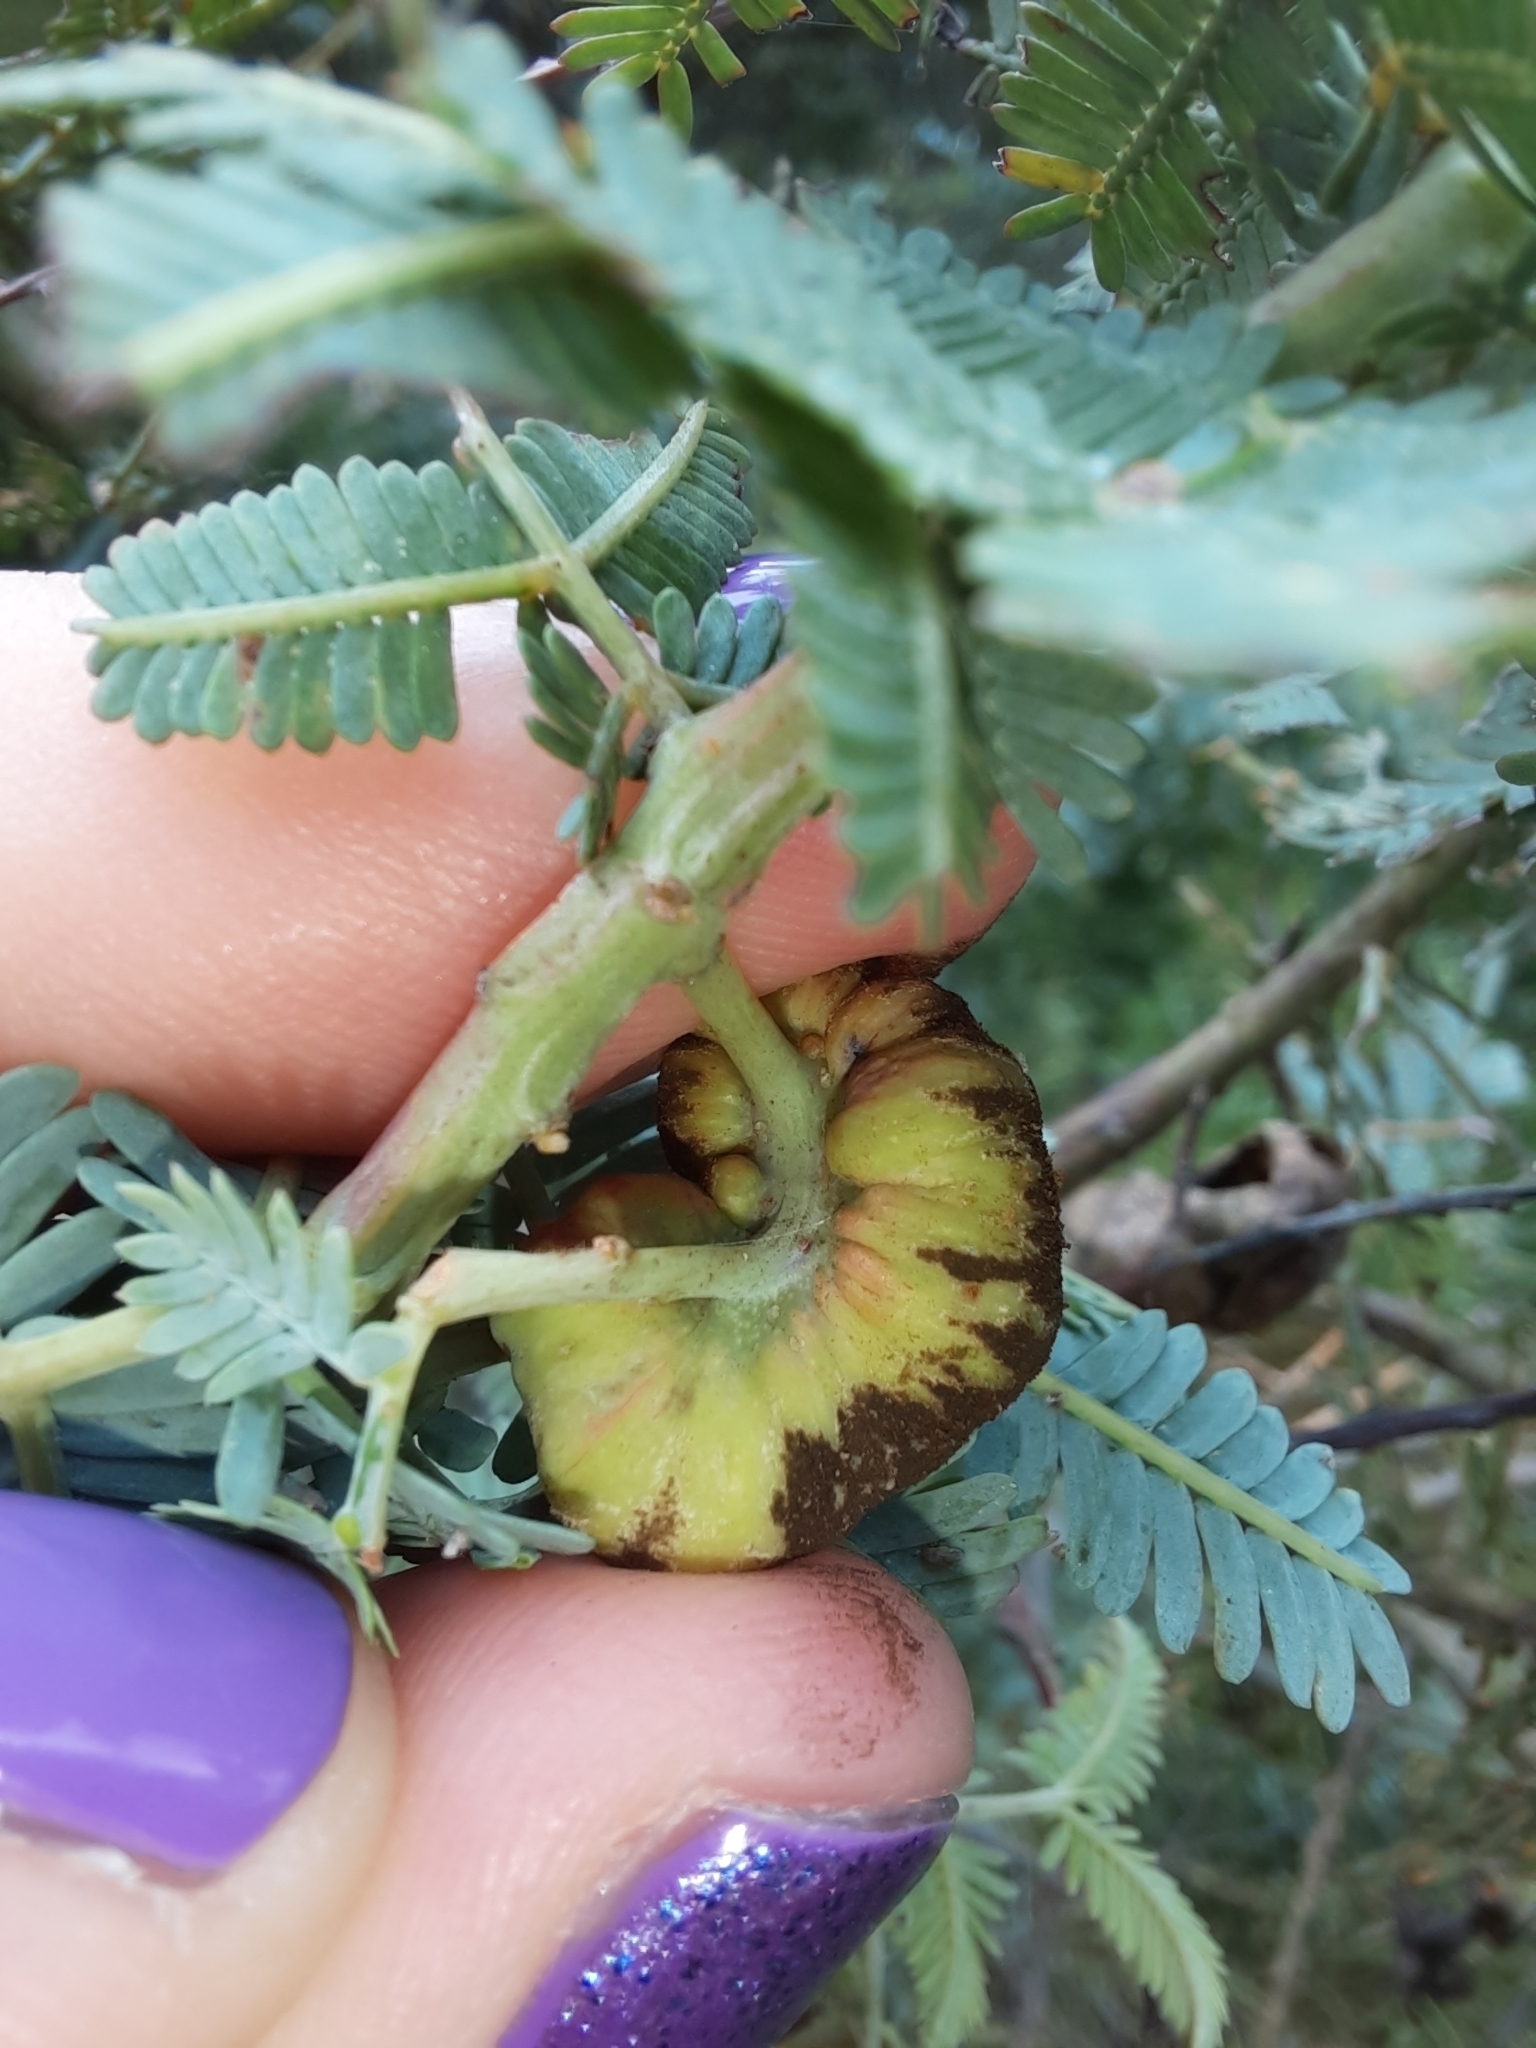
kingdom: Fungi
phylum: Basidiomycota
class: Pucciniomycetes
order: Pucciniales
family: Uromycladiaceae
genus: Uromycladium
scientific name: Uromycladium murphyi
